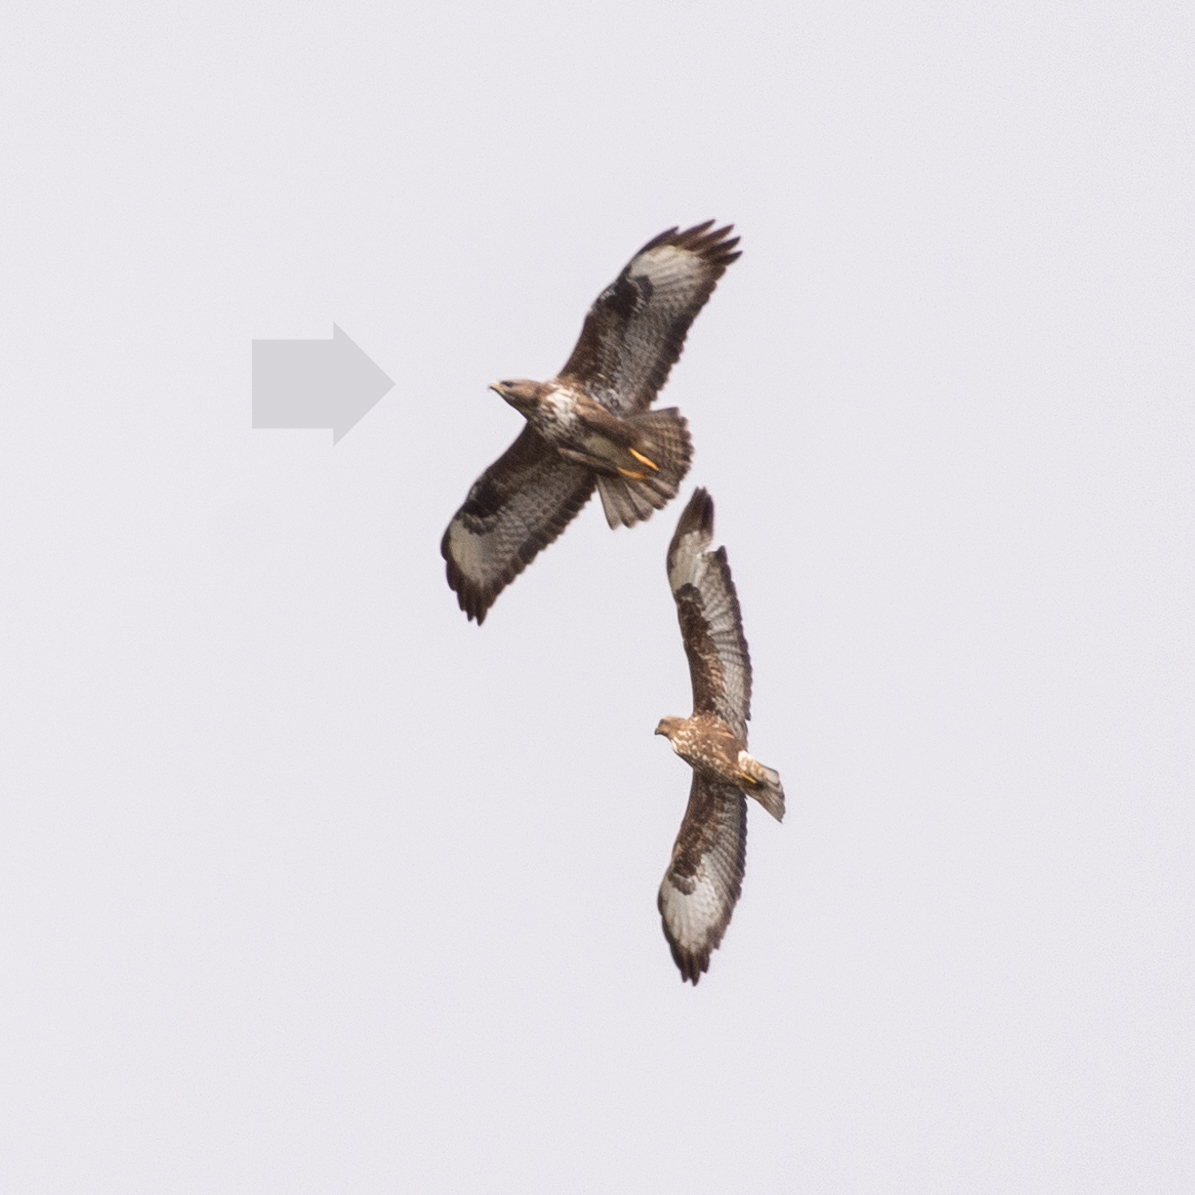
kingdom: Animalia
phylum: Chordata
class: Aves
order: Accipitriformes
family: Accipitridae
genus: Buteo
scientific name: Buteo buteo
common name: Common buzzard
